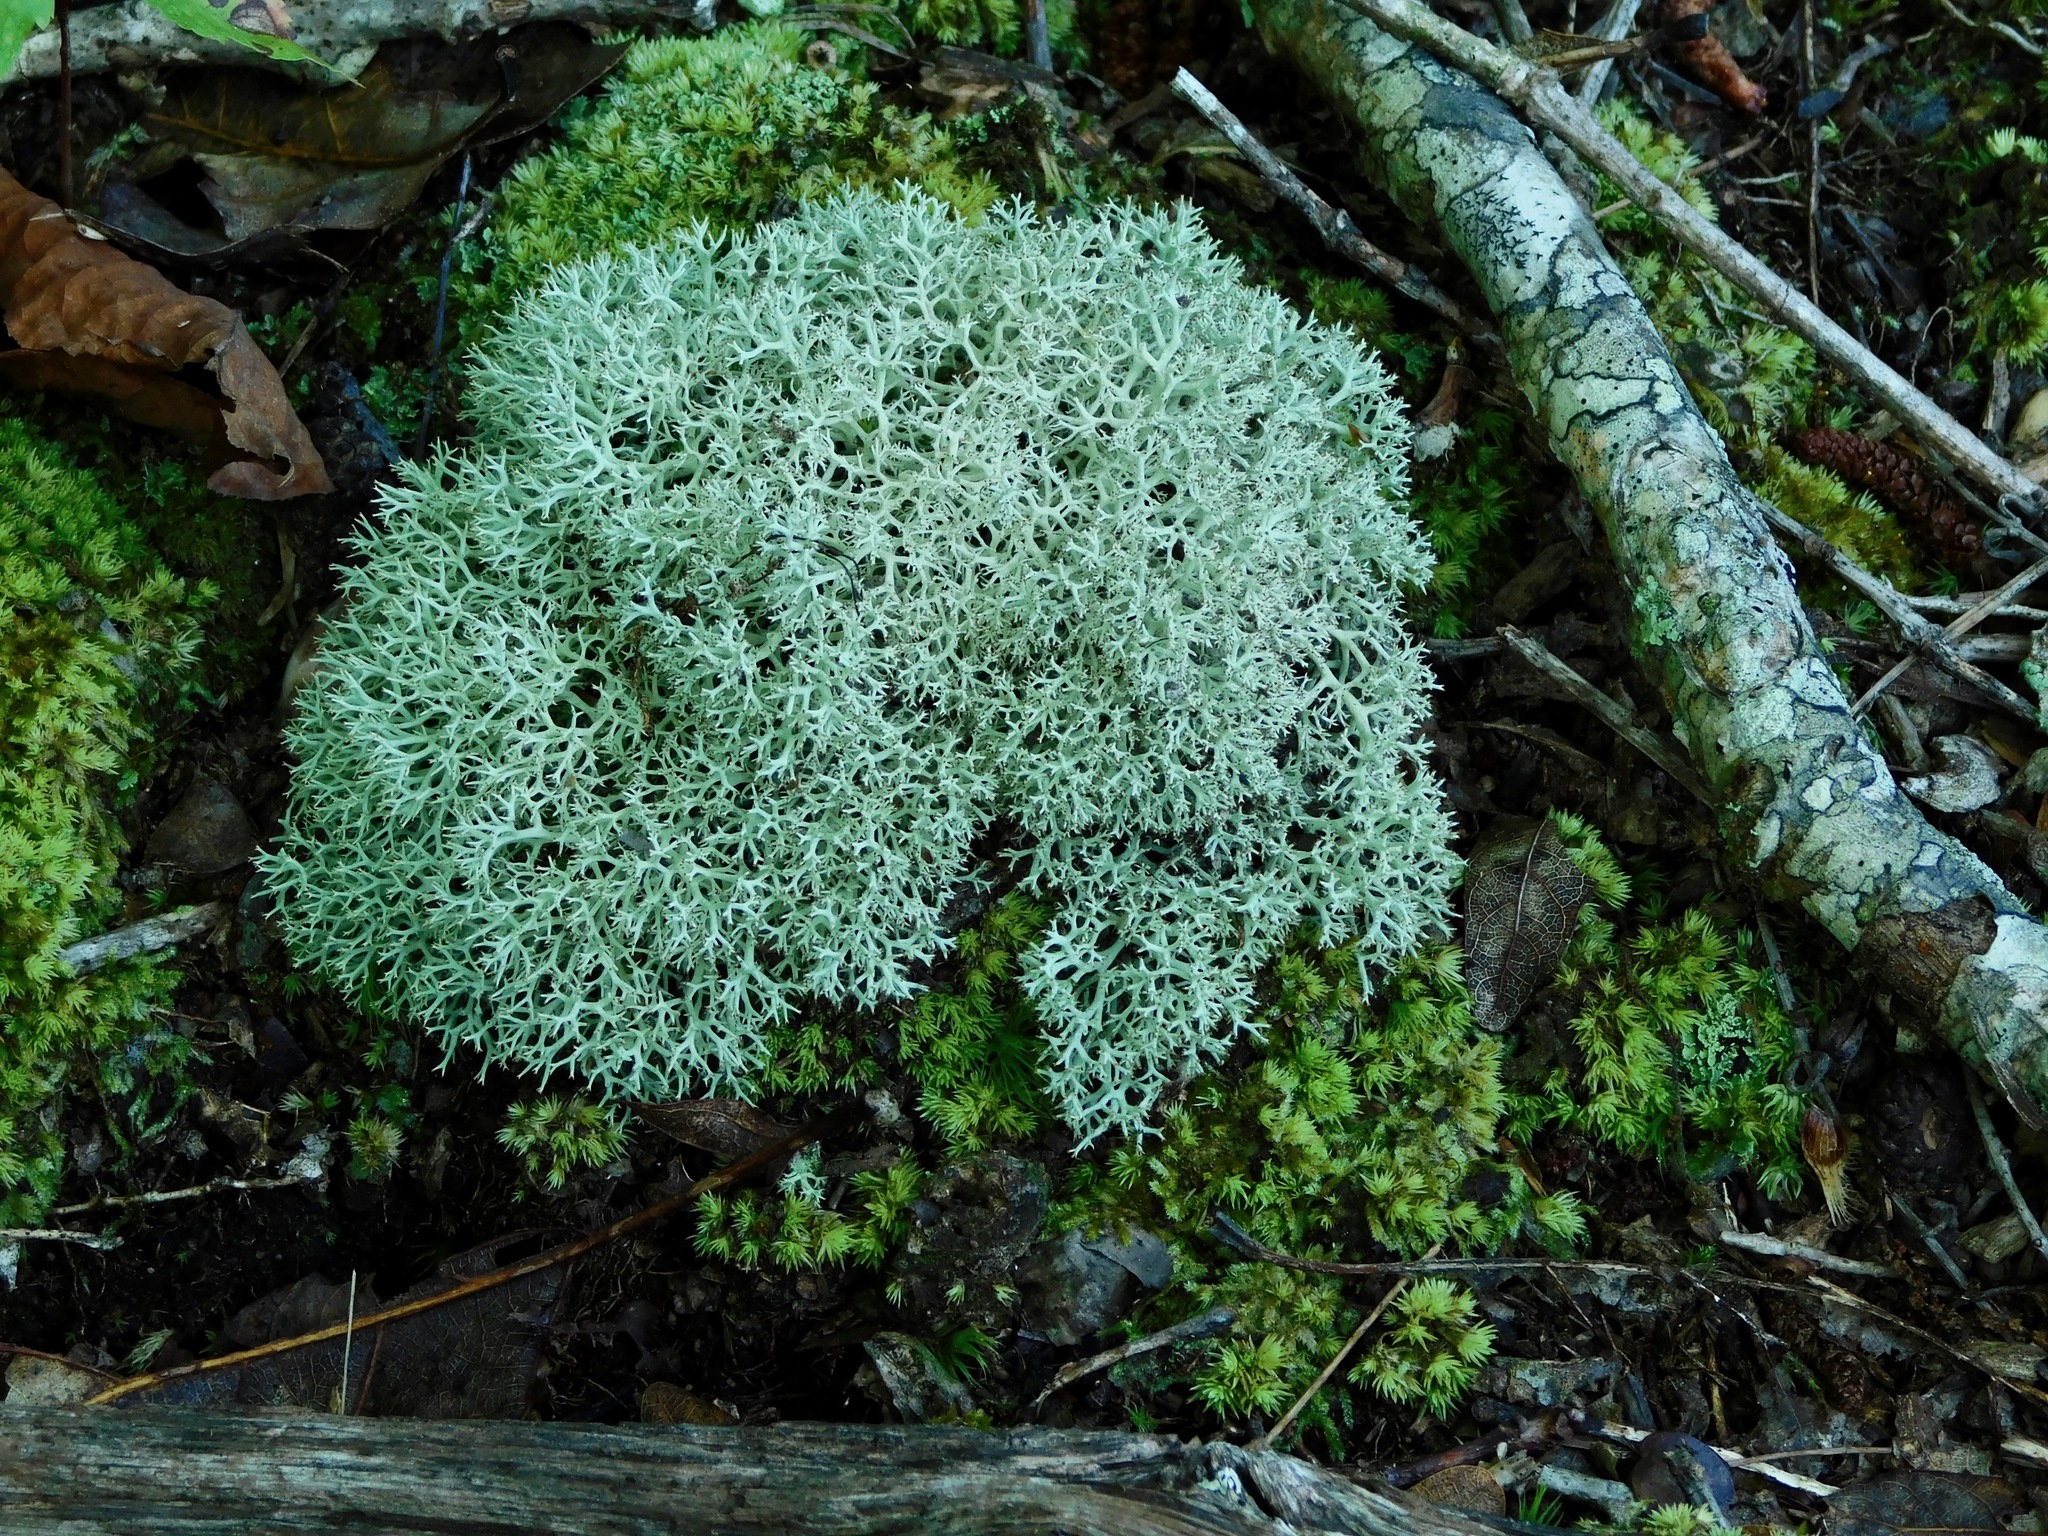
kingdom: Fungi
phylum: Ascomycota
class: Lecanoromycetes
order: Lecanorales
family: Cladoniaceae
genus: Cladonia
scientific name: Cladonia subtenuis
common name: Dixie reindeer lichen
